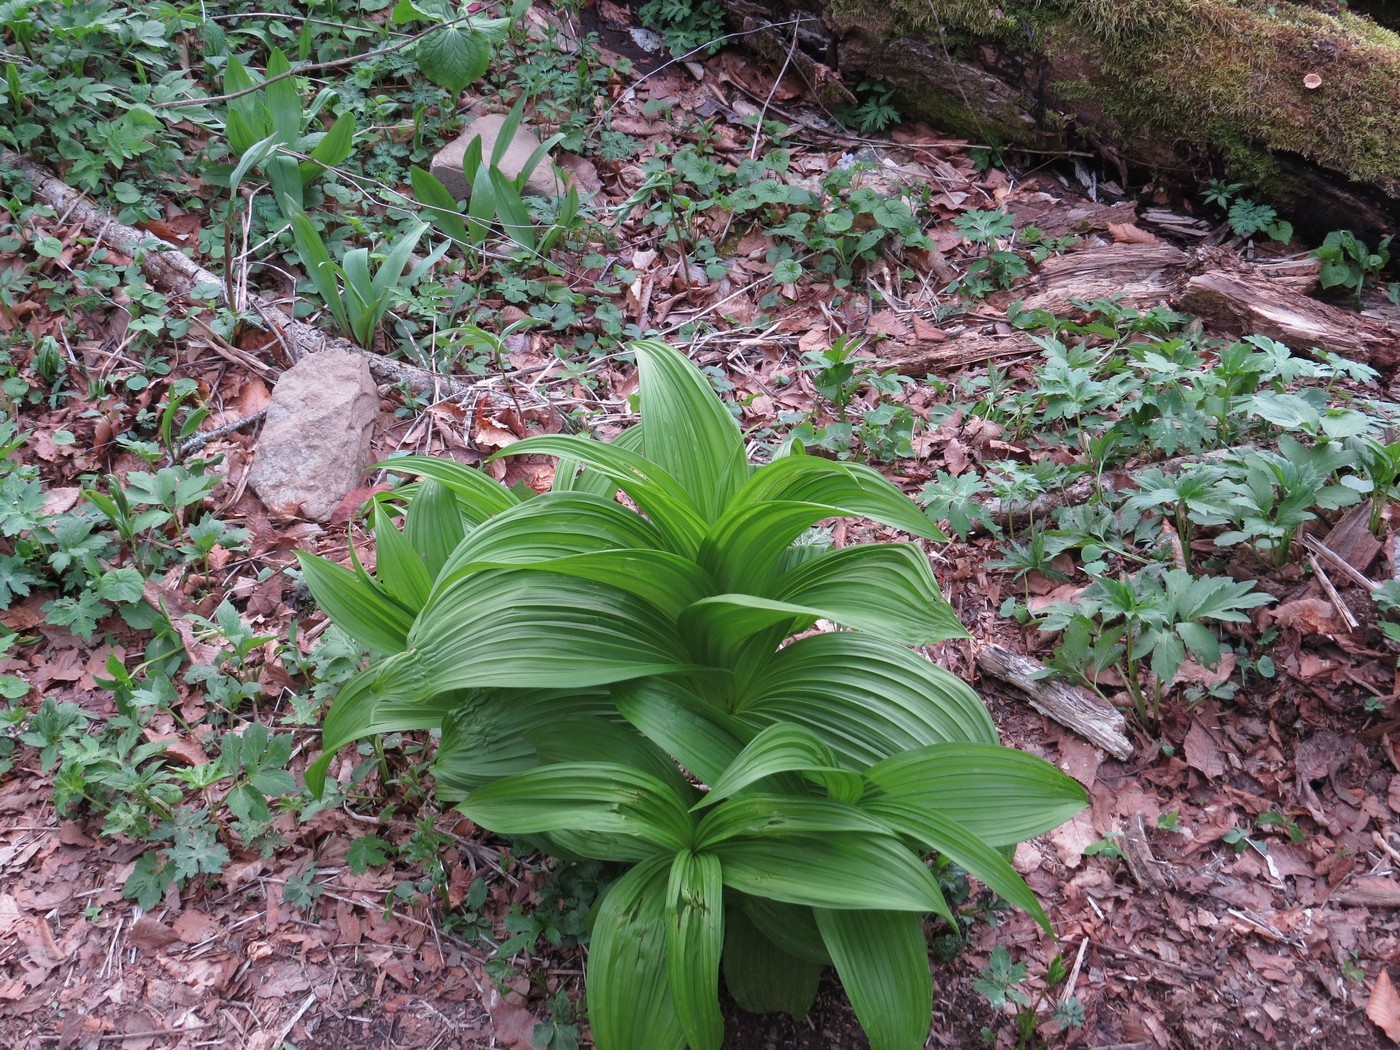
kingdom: Plantae
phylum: Tracheophyta
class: Liliopsida
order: Liliales
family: Melanthiaceae
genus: Veratrum
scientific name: Veratrum viride
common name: American false hellebore
